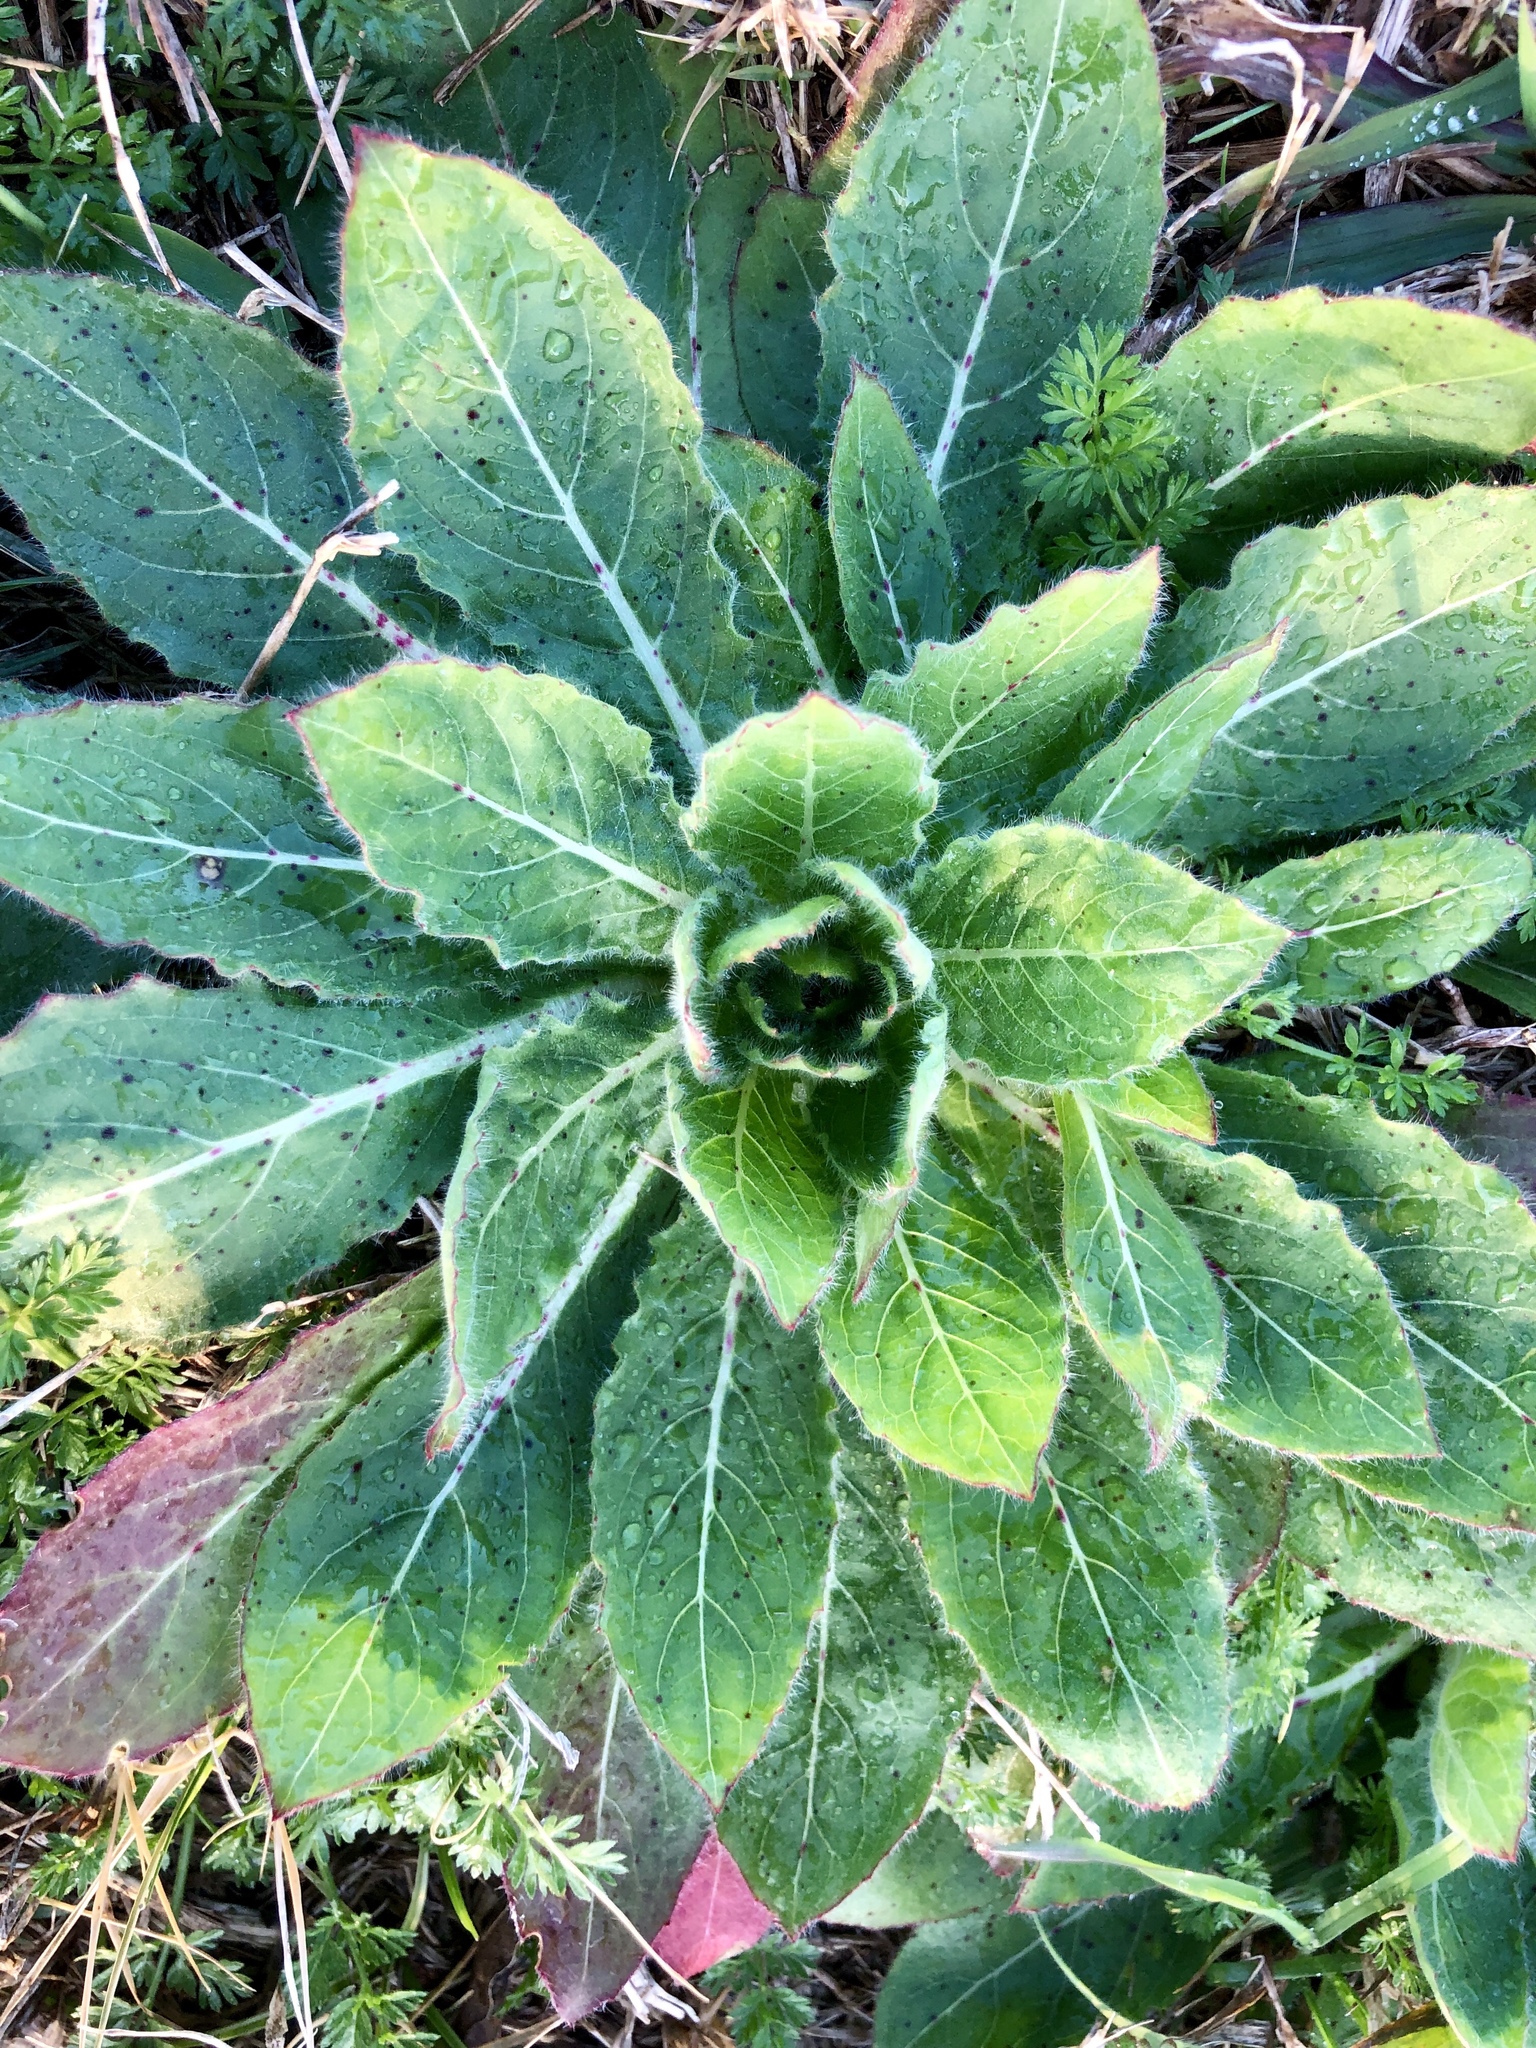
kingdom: Plantae
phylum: Tracheophyta
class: Magnoliopsida
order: Lamiales
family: Scrophulariaceae
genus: Verbascum
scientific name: Verbascum thapsus
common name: Common mullein
